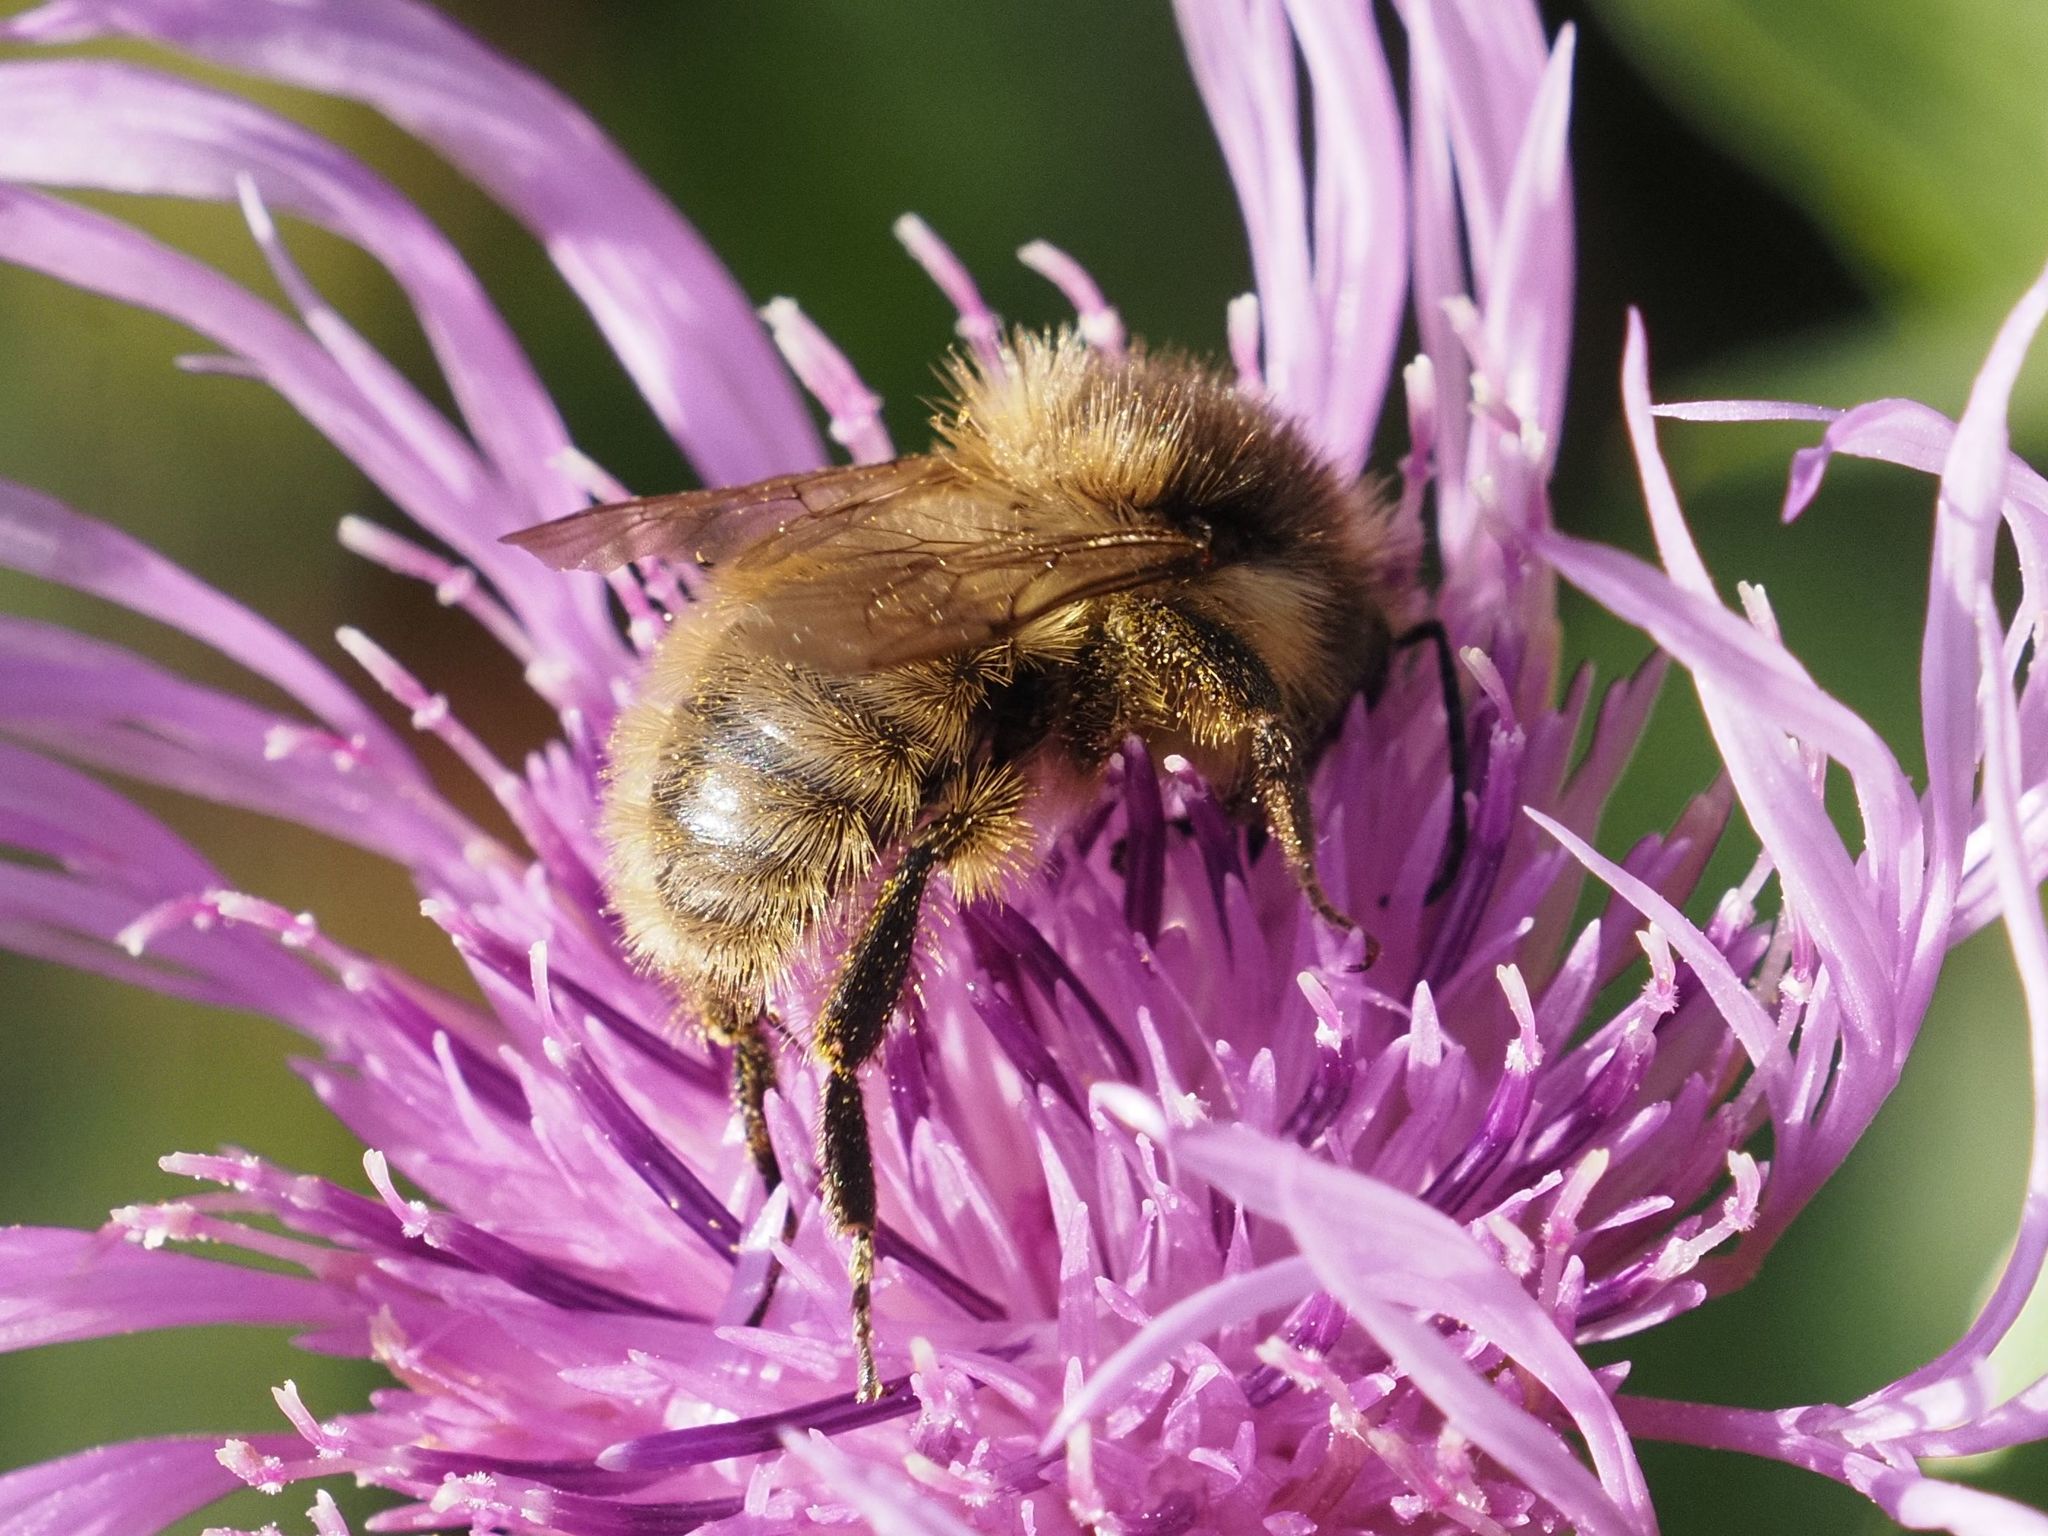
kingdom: Animalia
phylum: Arthropoda
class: Insecta
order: Hymenoptera
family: Apidae
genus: Bombus
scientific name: Bombus humilis
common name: Brown-banded carder-bee
